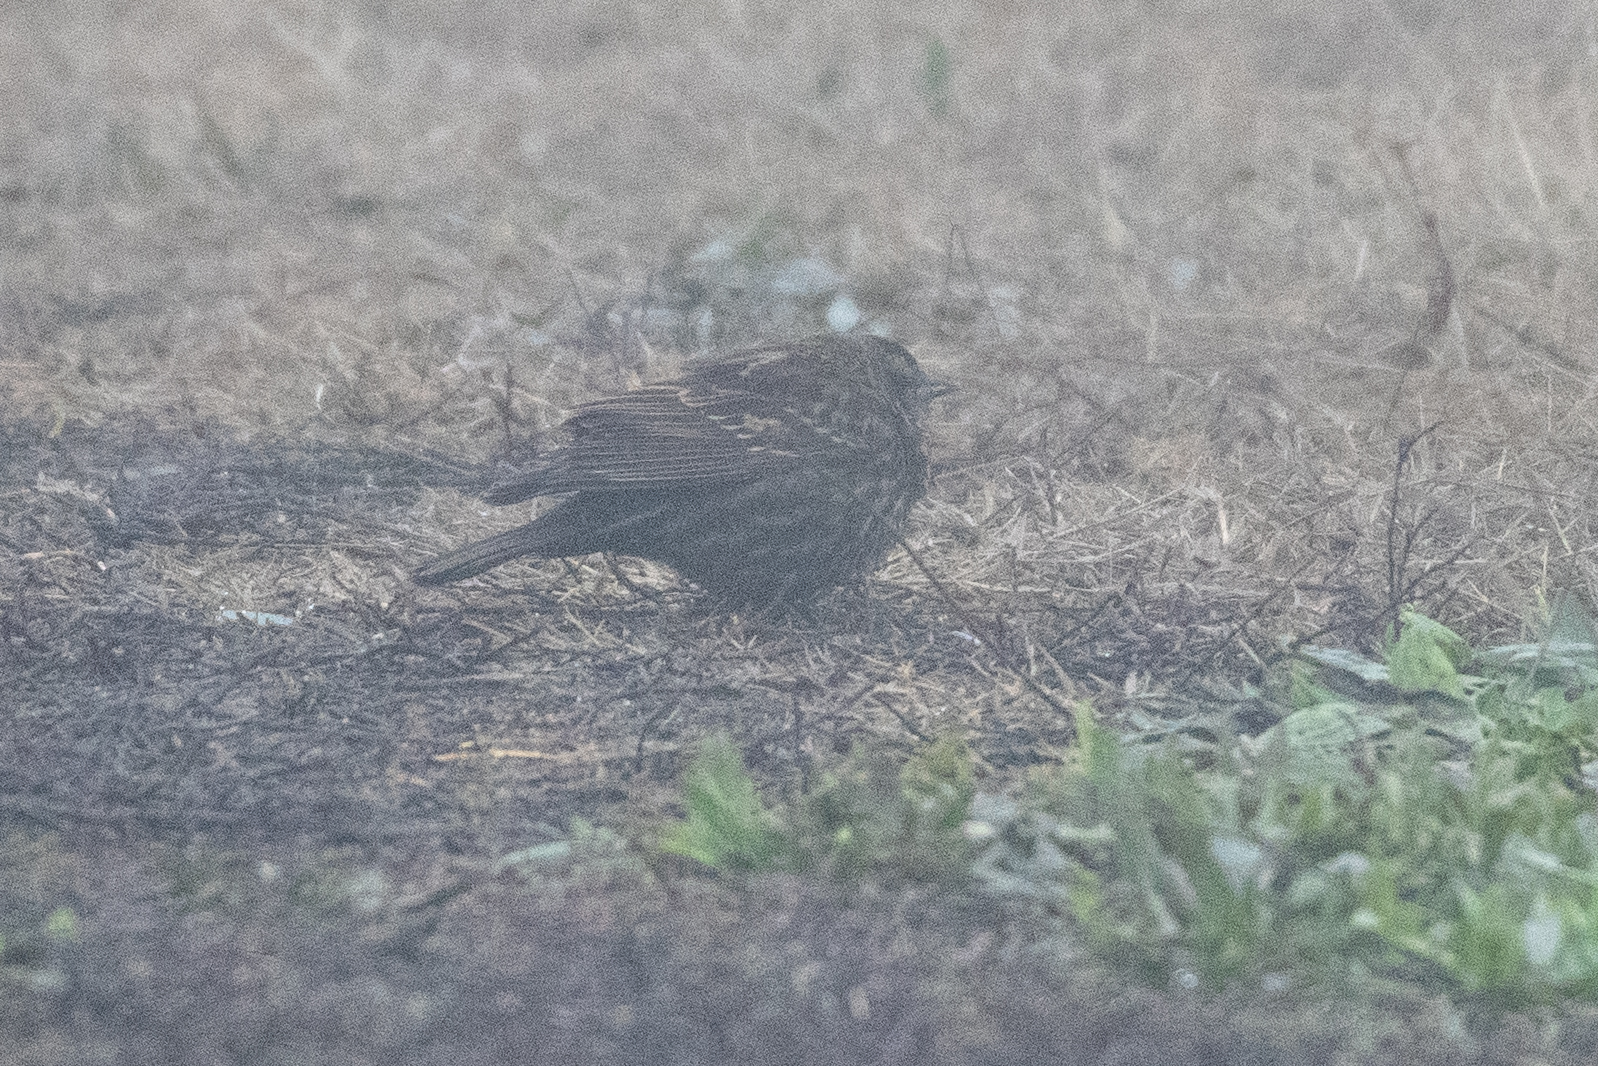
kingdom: Animalia
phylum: Chordata
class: Aves
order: Passeriformes
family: Icteridae
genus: Agelaius
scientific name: Agelaius phoeniceus
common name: Red-winged blackbird
